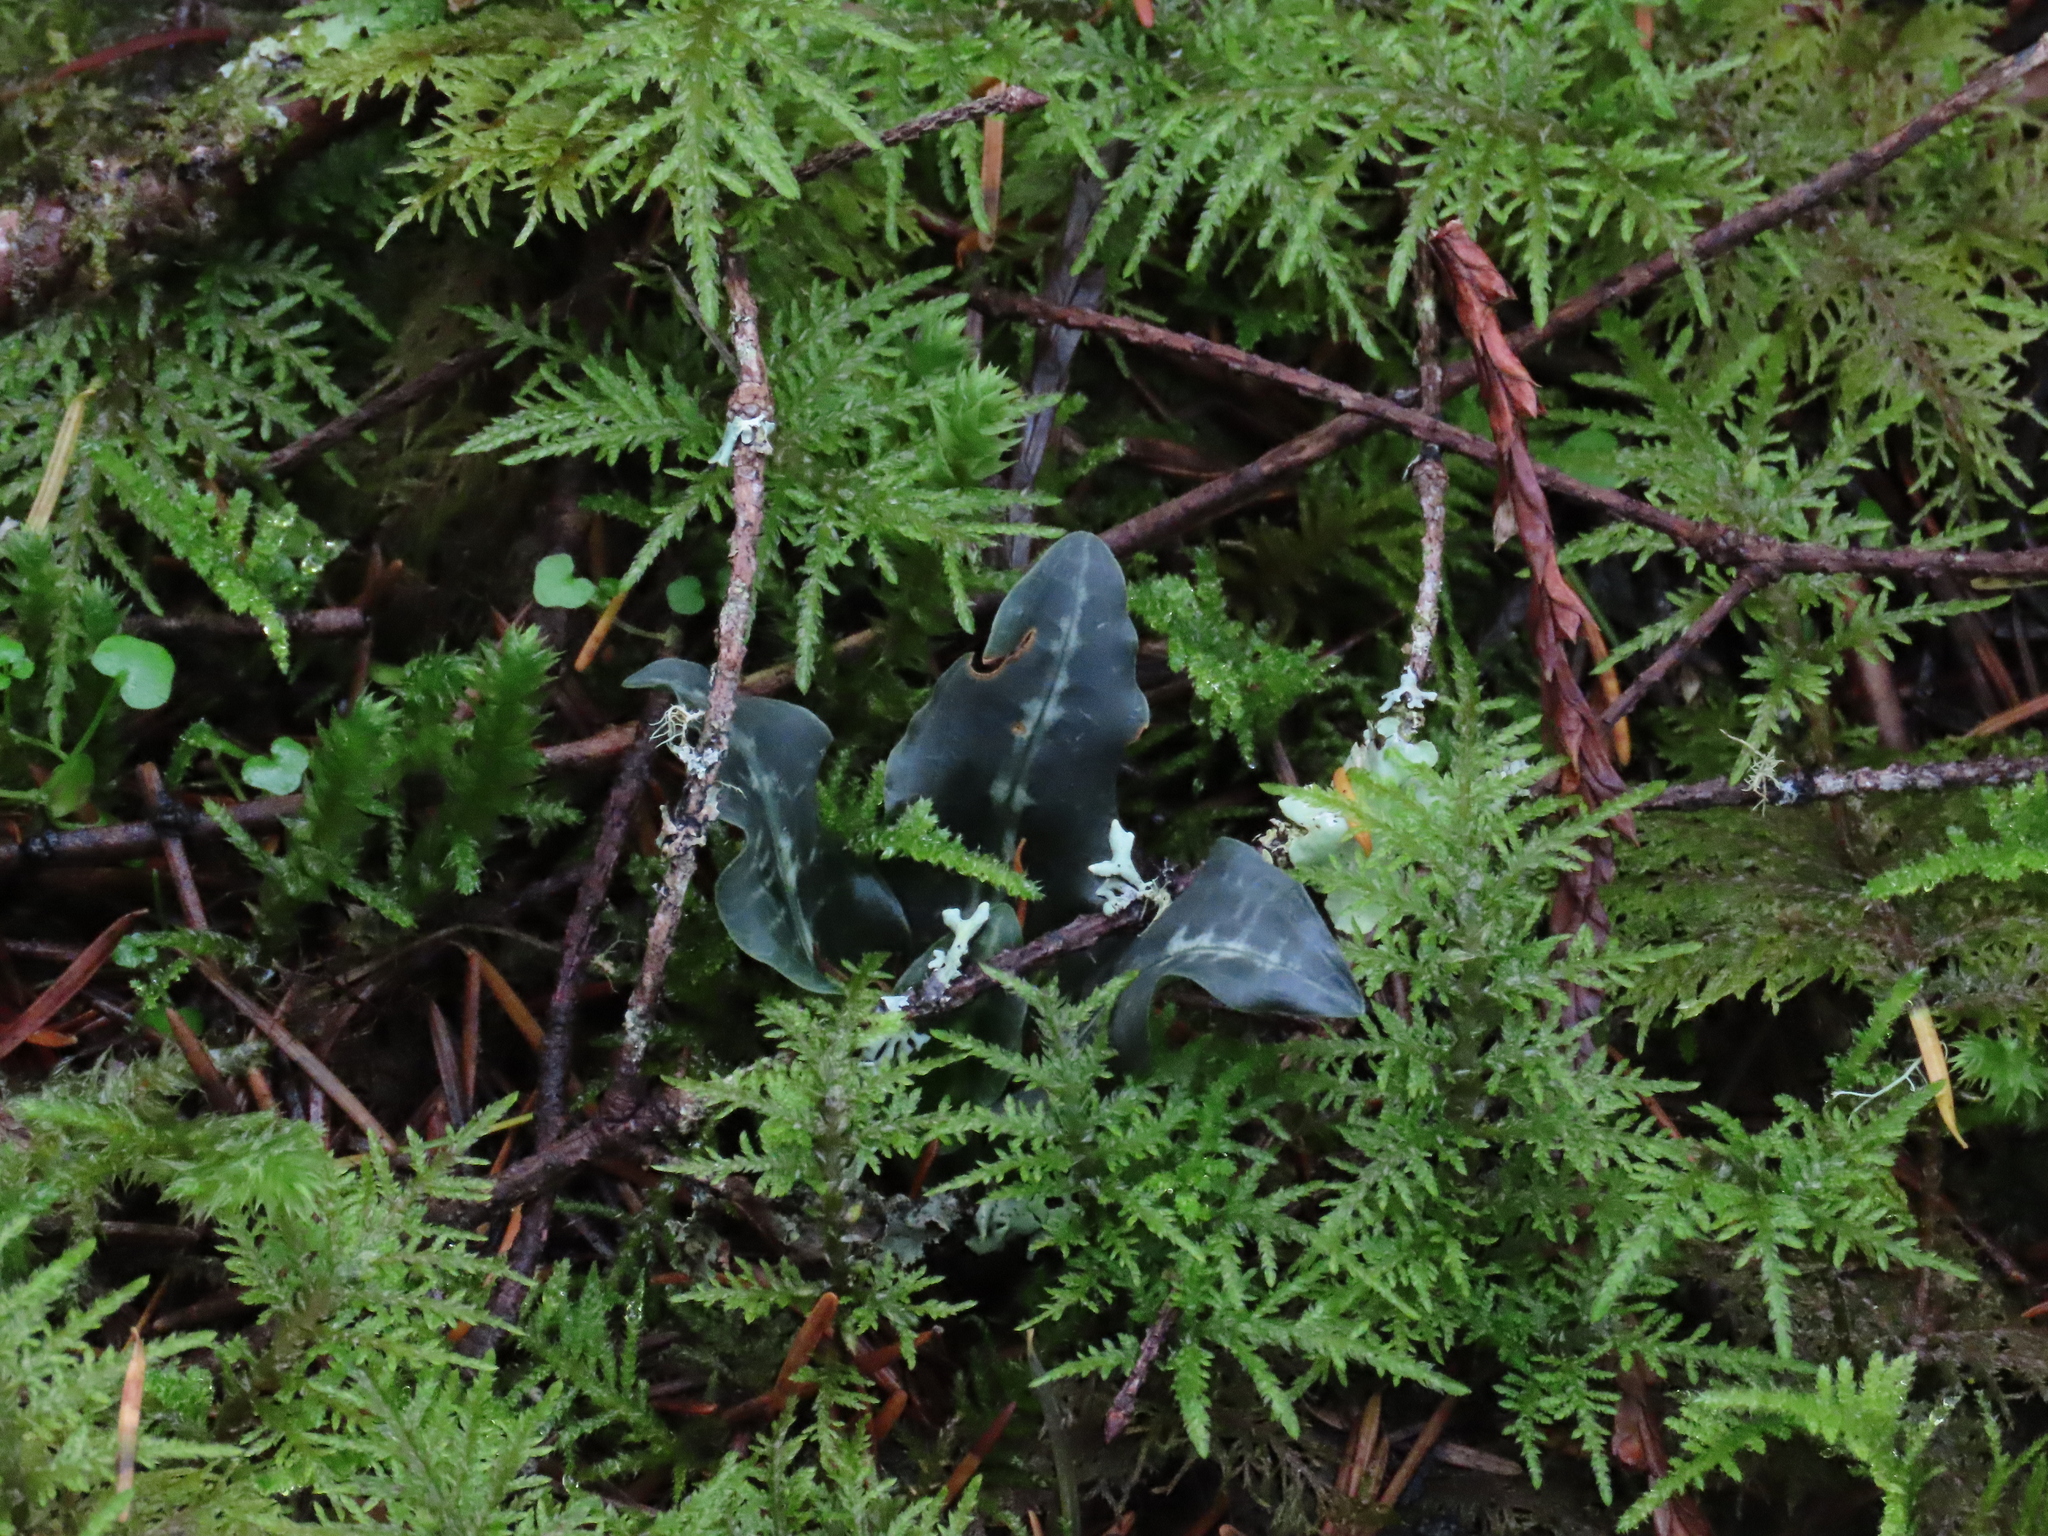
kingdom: Plantae
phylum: Tracheophyta
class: Liliopsida
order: Asparagales
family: Orchidaceae
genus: Goodyera
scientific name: Goodyera oblongifolia
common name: Giant rattlesnake-plantain
